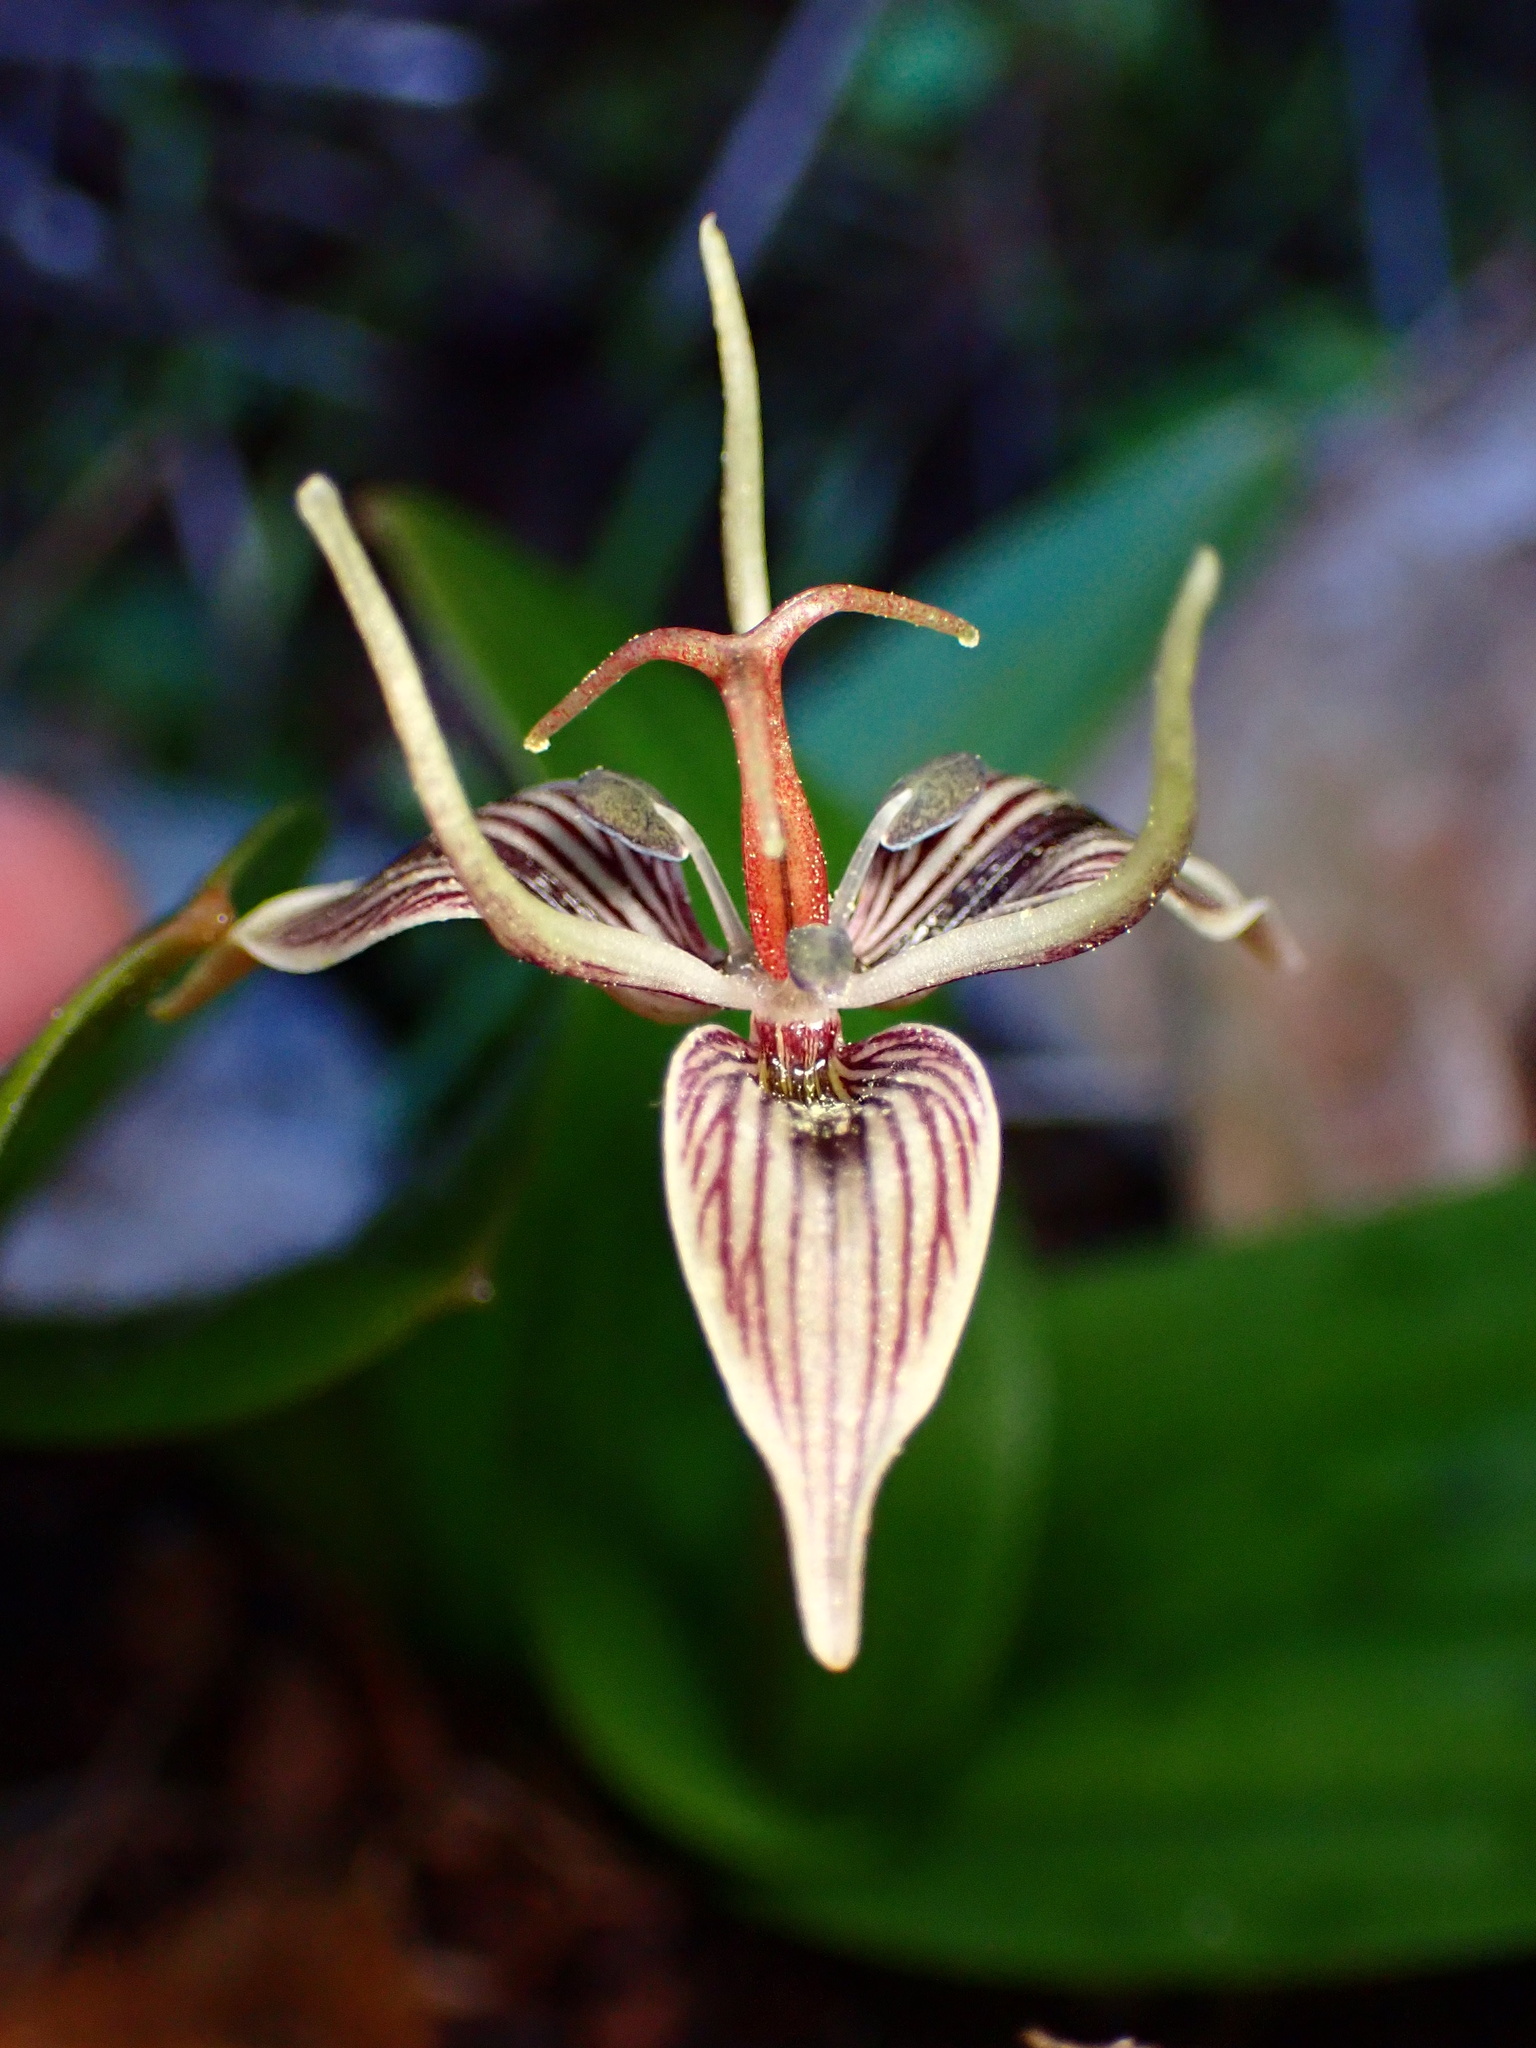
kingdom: Plantae
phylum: Tracheophyta
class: Liliopsida
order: Liliales
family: Liliaceae
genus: Scoliopus
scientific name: Scoliopus bigelovii
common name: Foetid adder's-tongue
